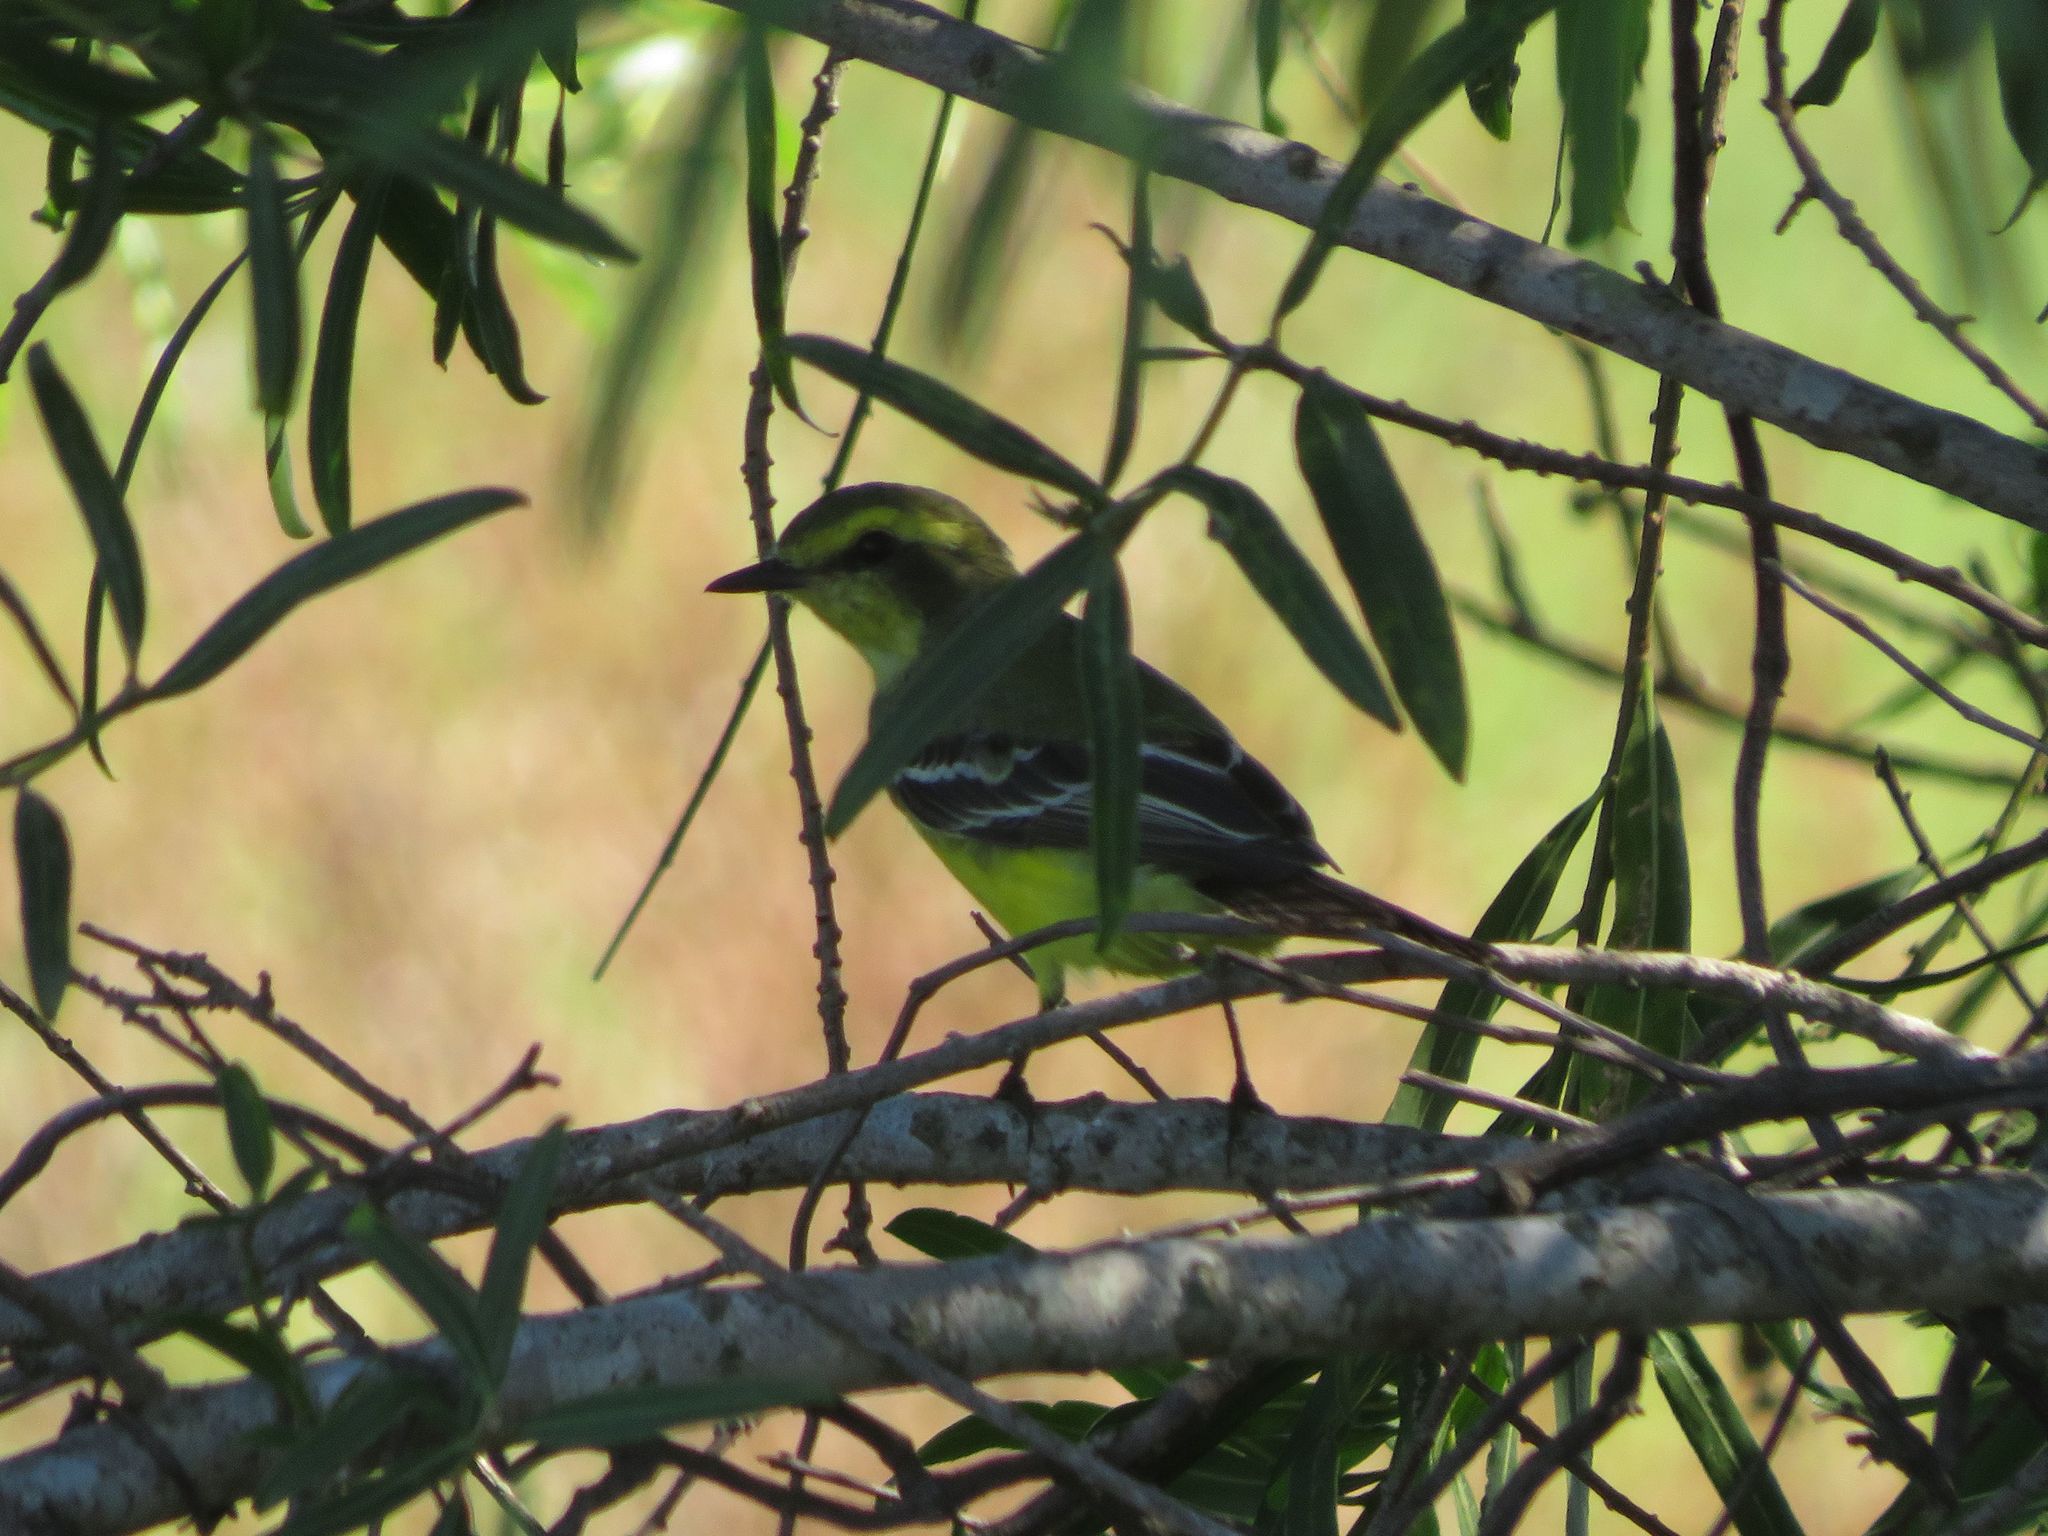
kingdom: Animalia
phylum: Chordata
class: Aves
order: Passeriformes
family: Tyrannidae
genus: Satrapa
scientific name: Satrapa icterophrys
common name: Yellow-browed tyrant
